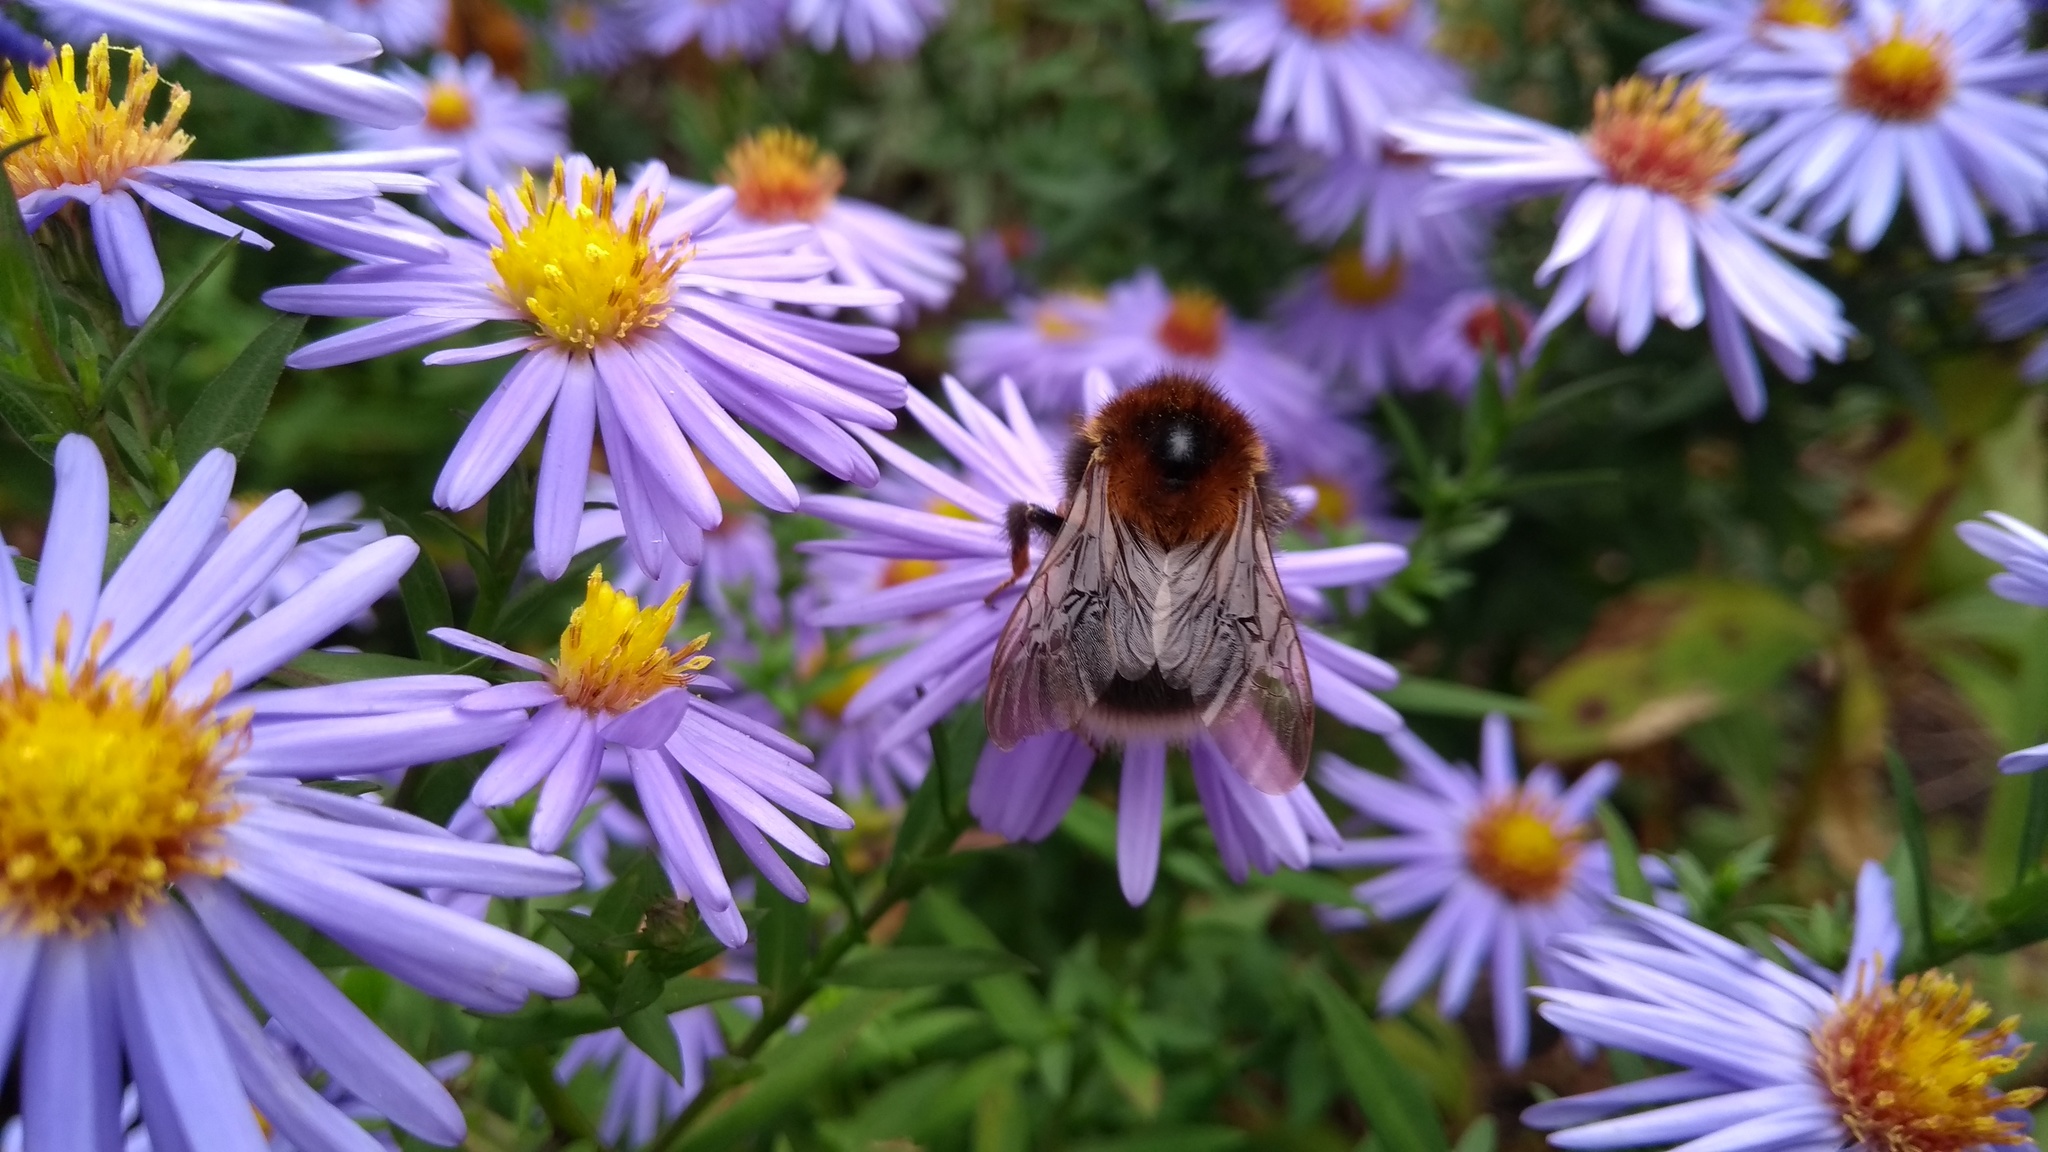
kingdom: Animalia
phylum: Arthropoda
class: Insecta
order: Hymenoptera
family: Apidae
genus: Bombus
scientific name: Bombus hypnorum
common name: New garden bumblebee
